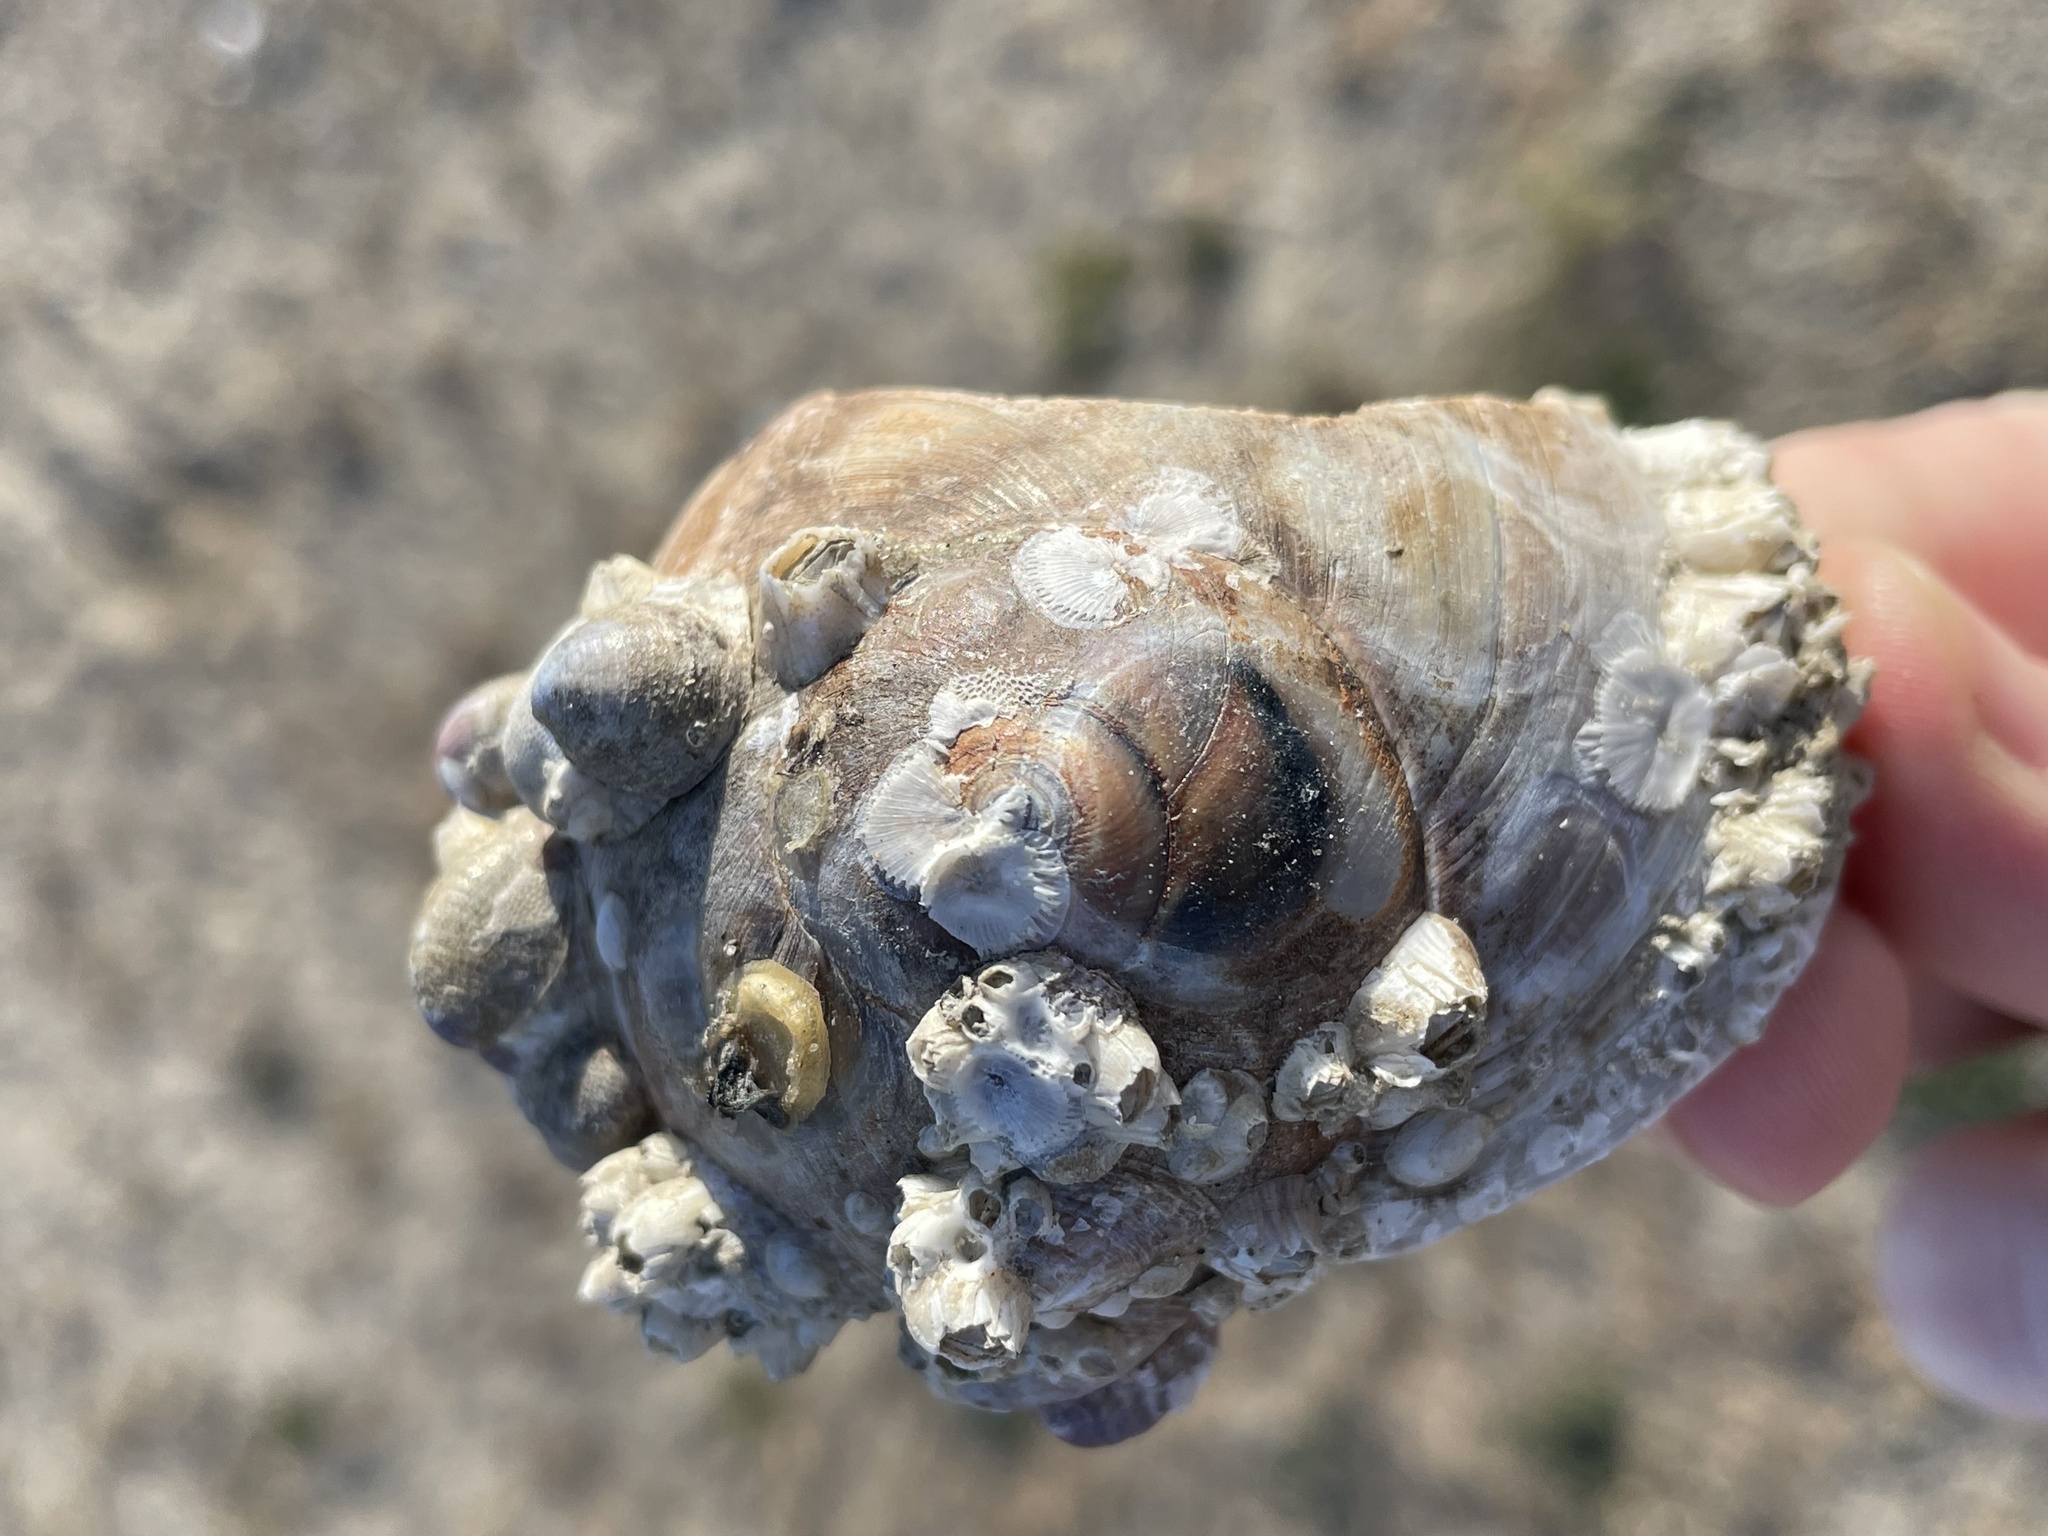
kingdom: Animalia
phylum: Mollusca
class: Gastropoda
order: Littorinimorpha
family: Naticidae
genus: Neverita
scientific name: Neverita duplicata
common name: Lobed moonsnail
